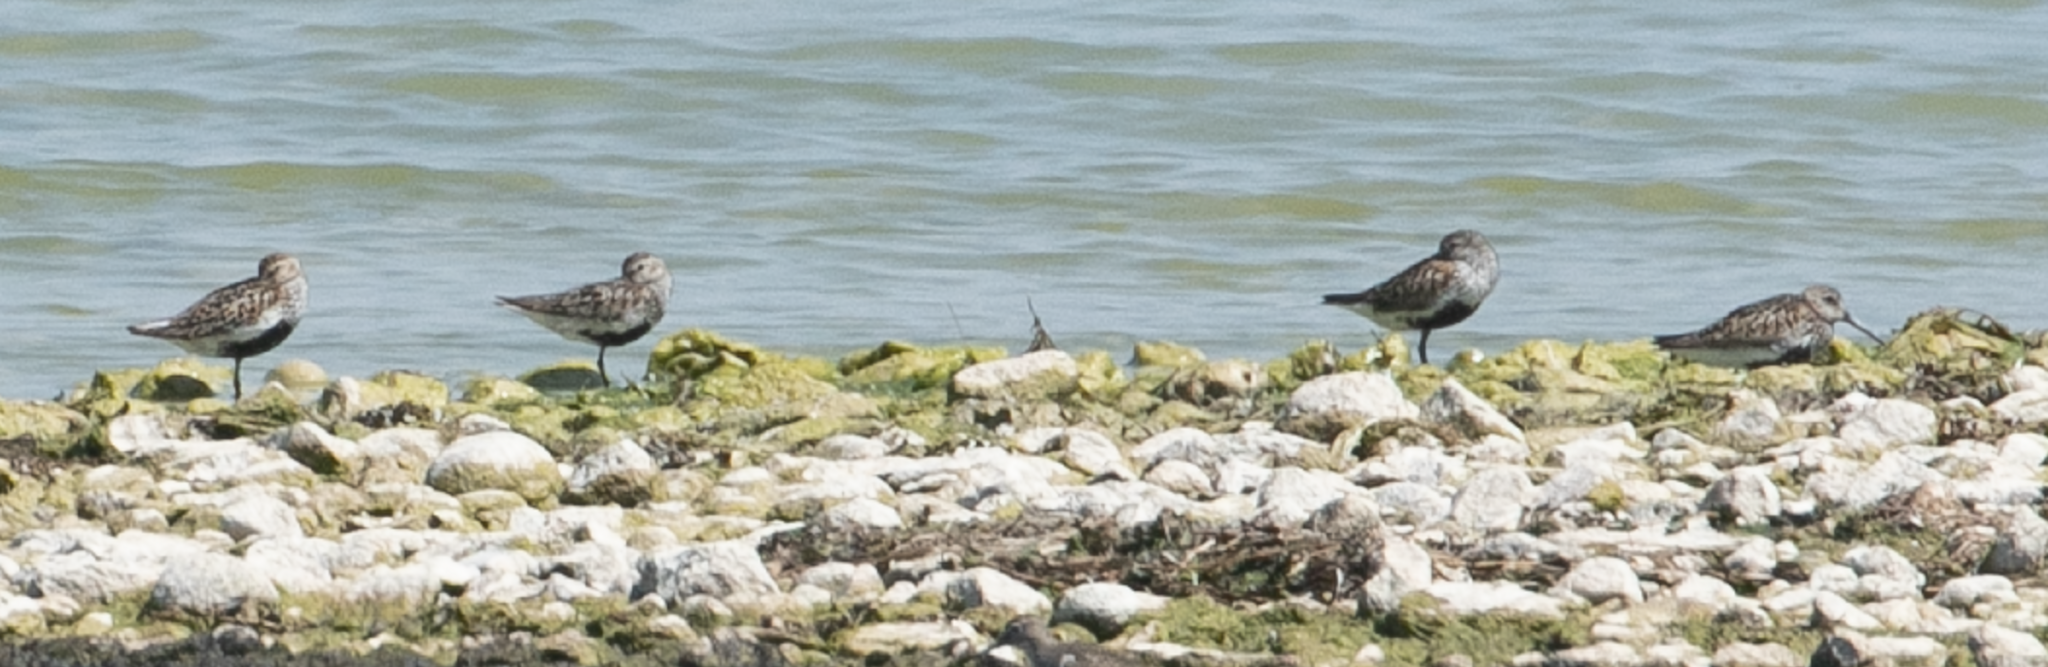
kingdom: Animalia
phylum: Chordata
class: Aves
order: Charadriiformes
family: Scolopacidae
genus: Calidris
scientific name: Calidris alpina
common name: Dunlin
